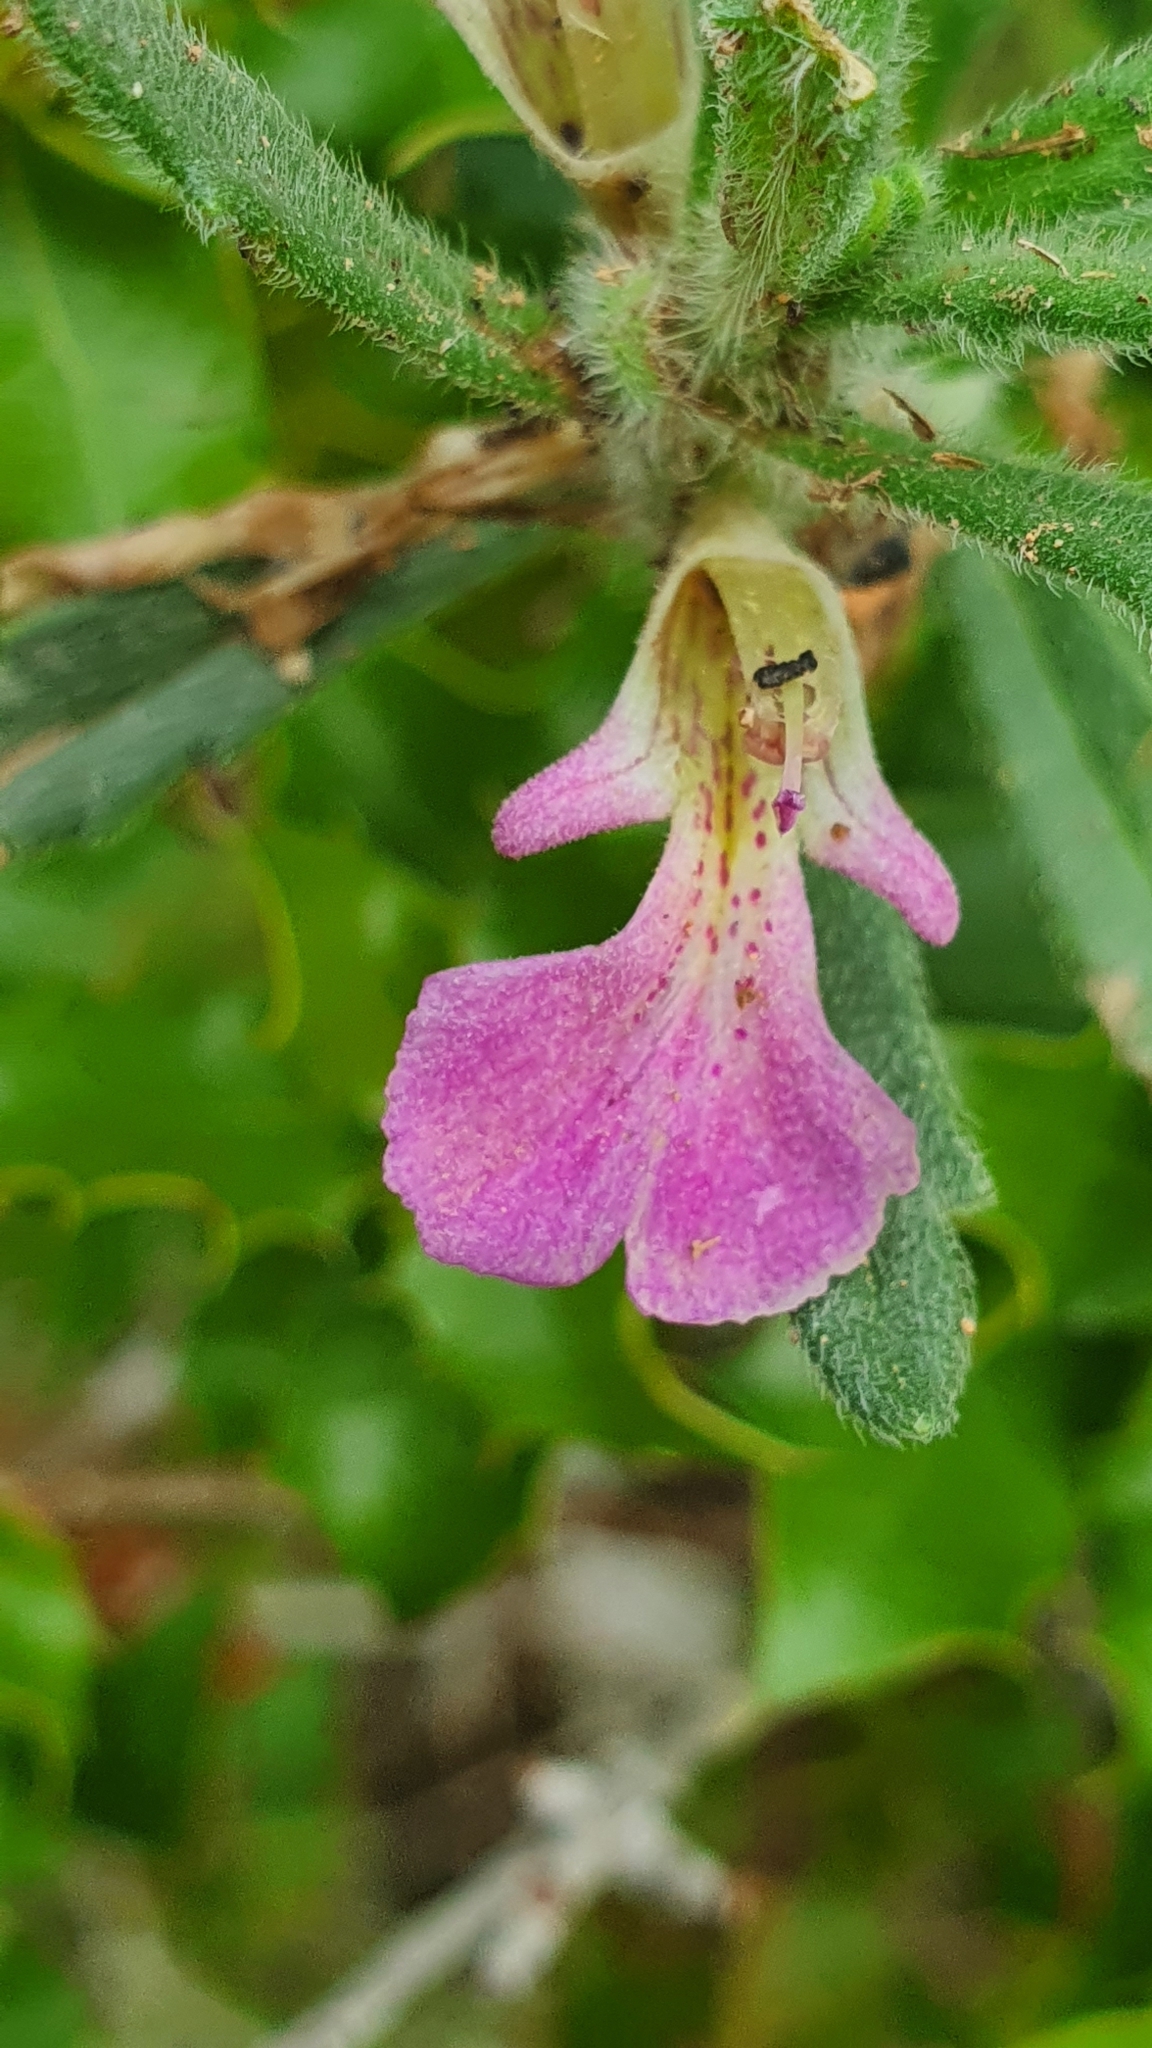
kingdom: Plantae
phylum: Tracheophyta
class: Magnoliopsida
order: Lamiales
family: Lamiaceae
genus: Ajuga
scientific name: Ajuga iva
